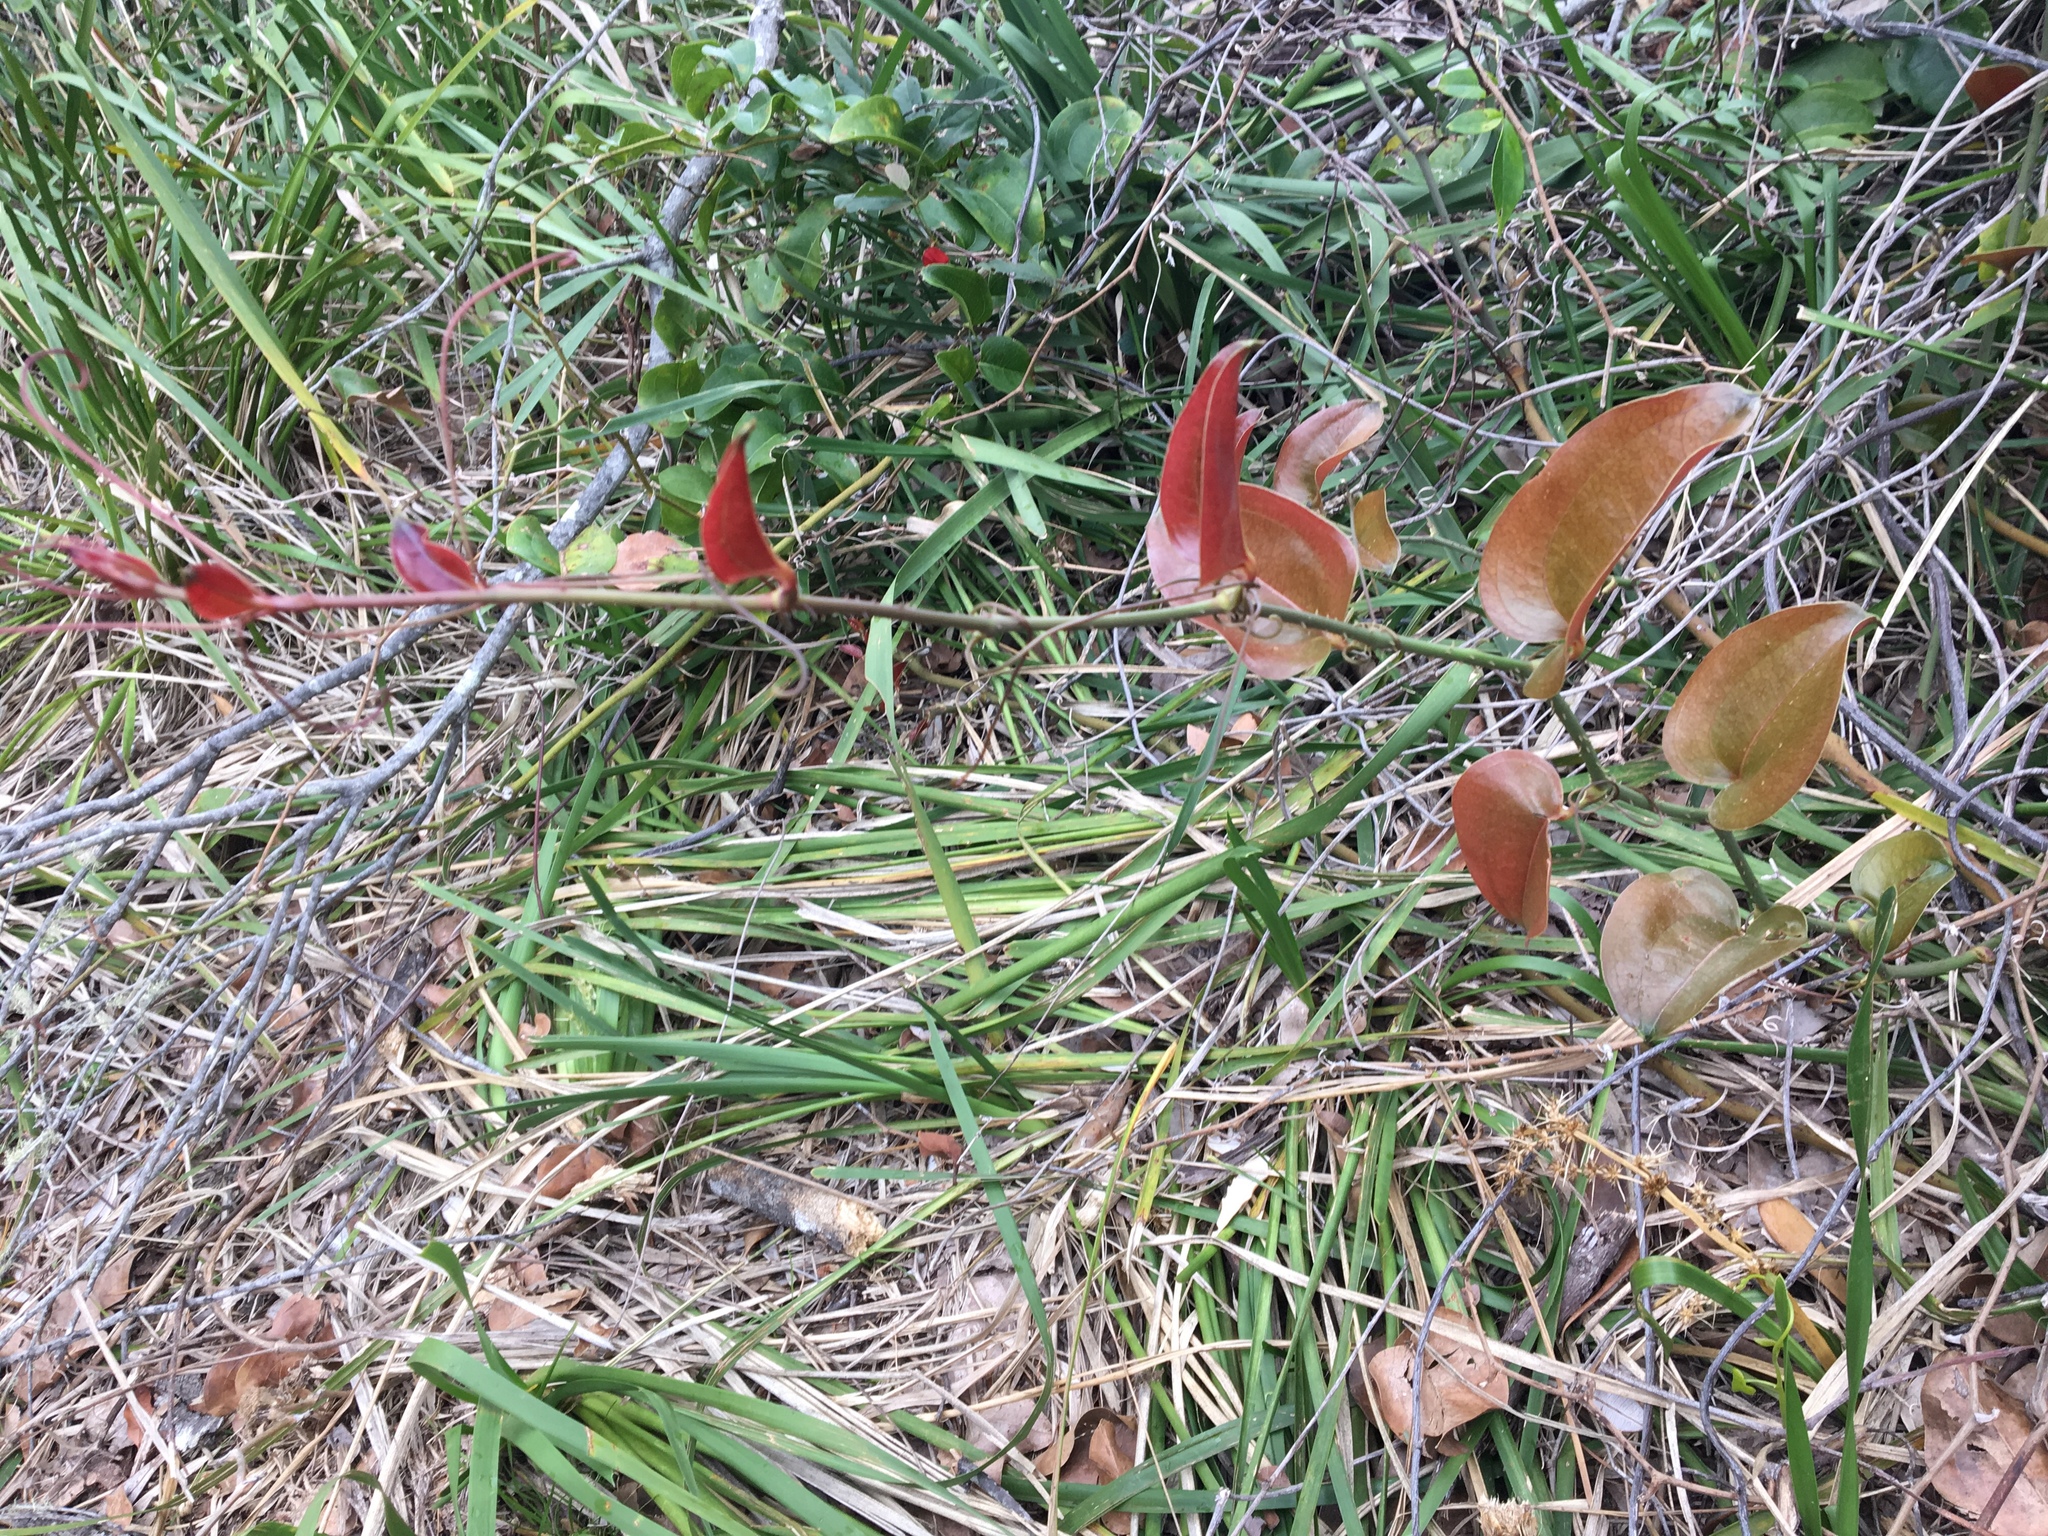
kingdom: Plantae
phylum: Tracheophyta
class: Liliopsida
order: Liliales
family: Smilacaceae
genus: Smilax
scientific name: Smilax australis
